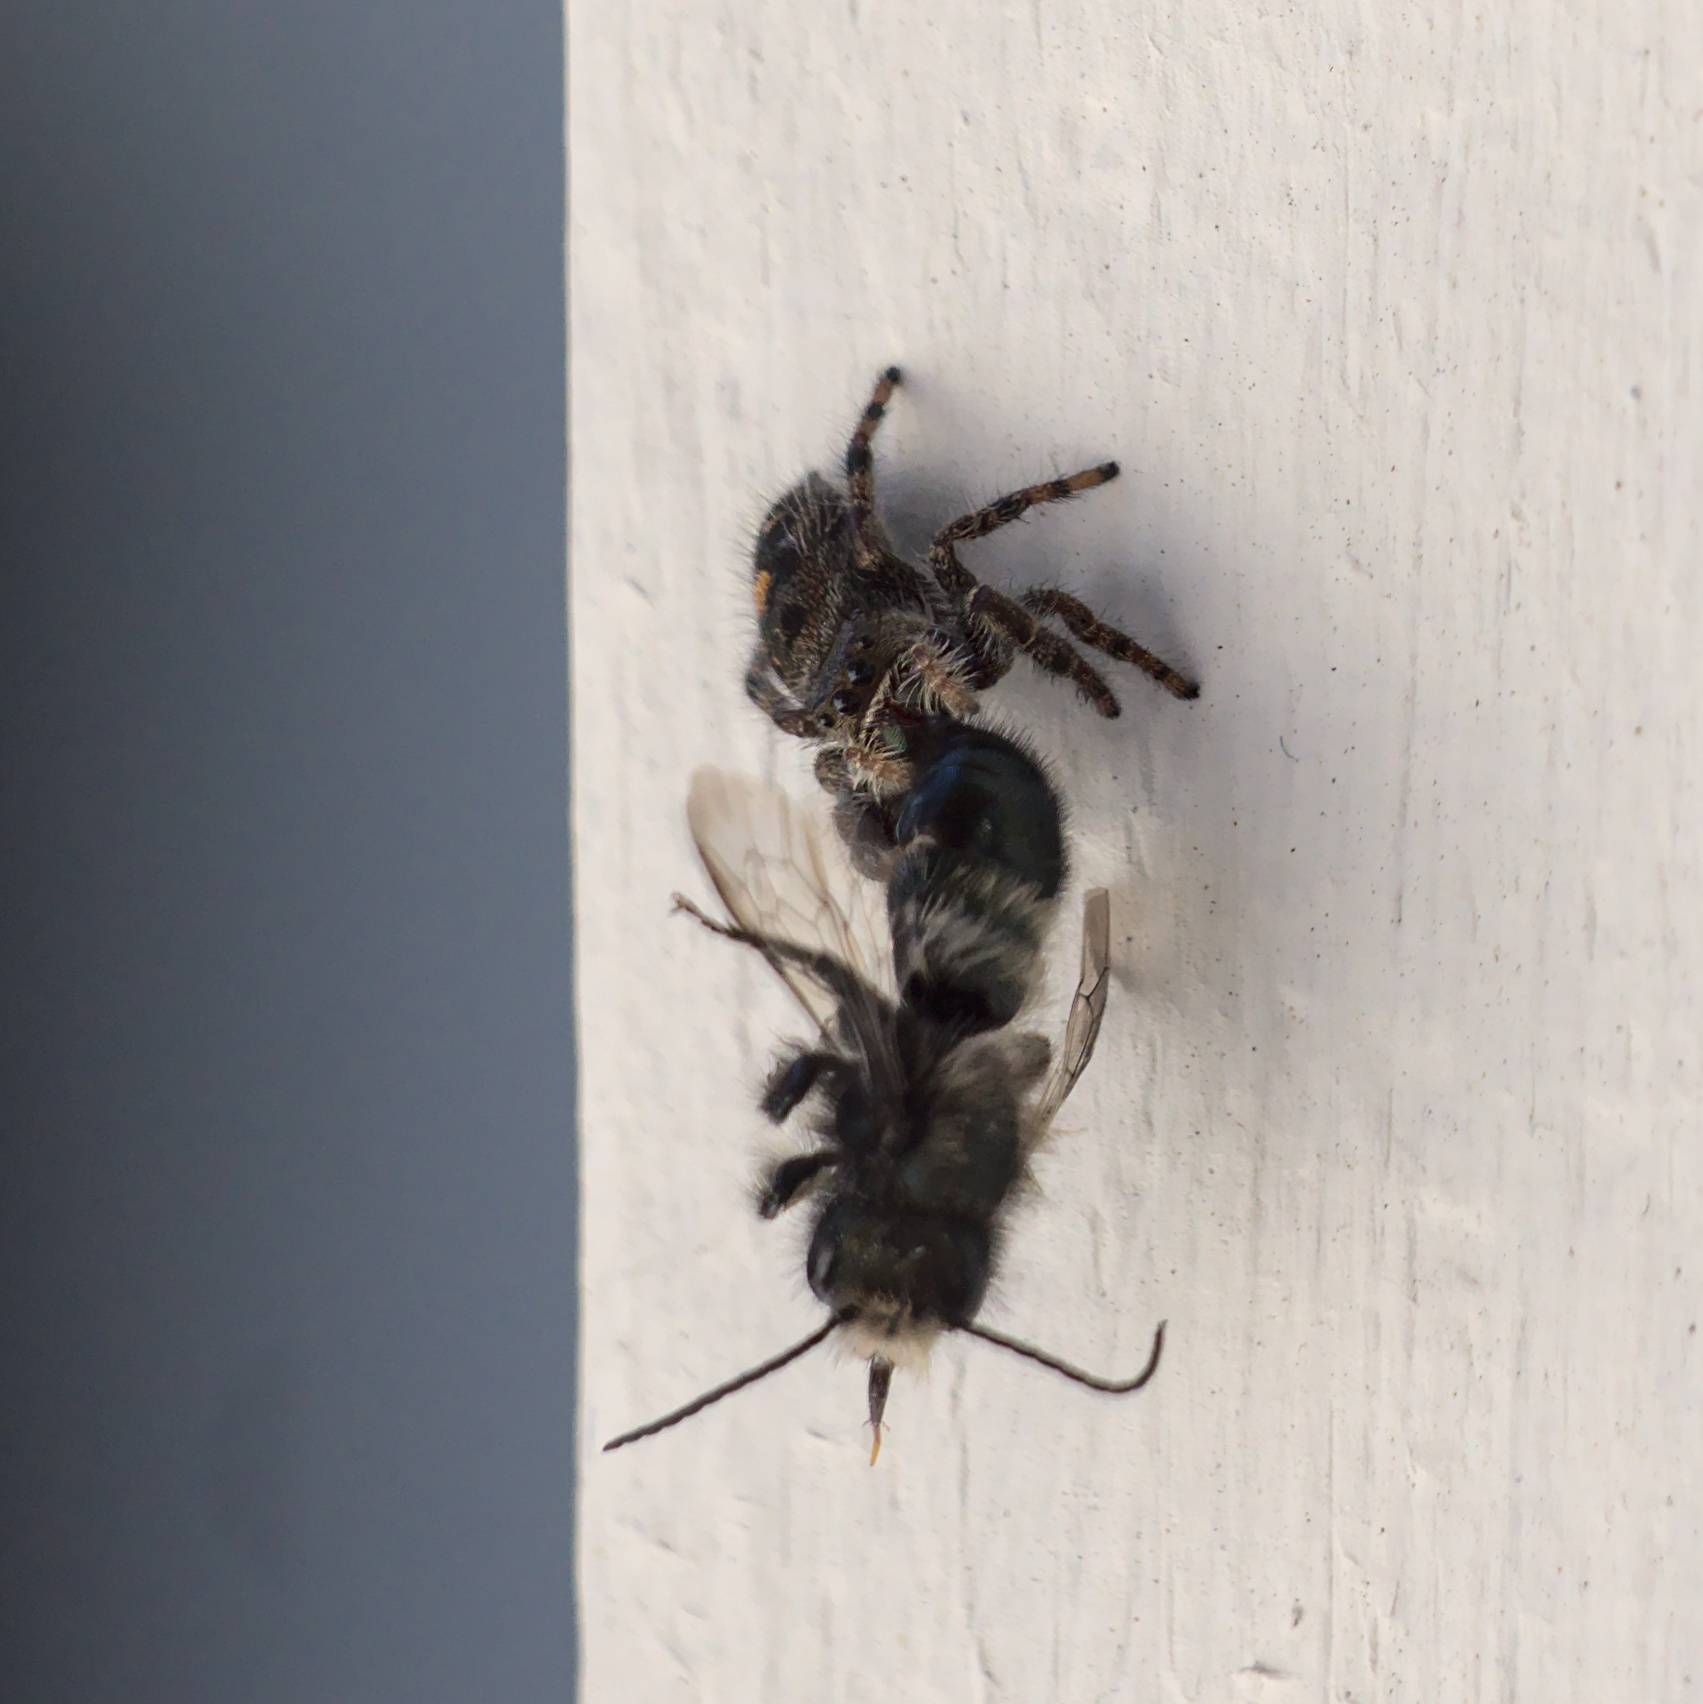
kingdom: Animalia
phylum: Arthropoda
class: Arachnida
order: Araneae
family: Salticidae
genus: Phidippus
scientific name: Phidippus audax
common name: Bold jumper
